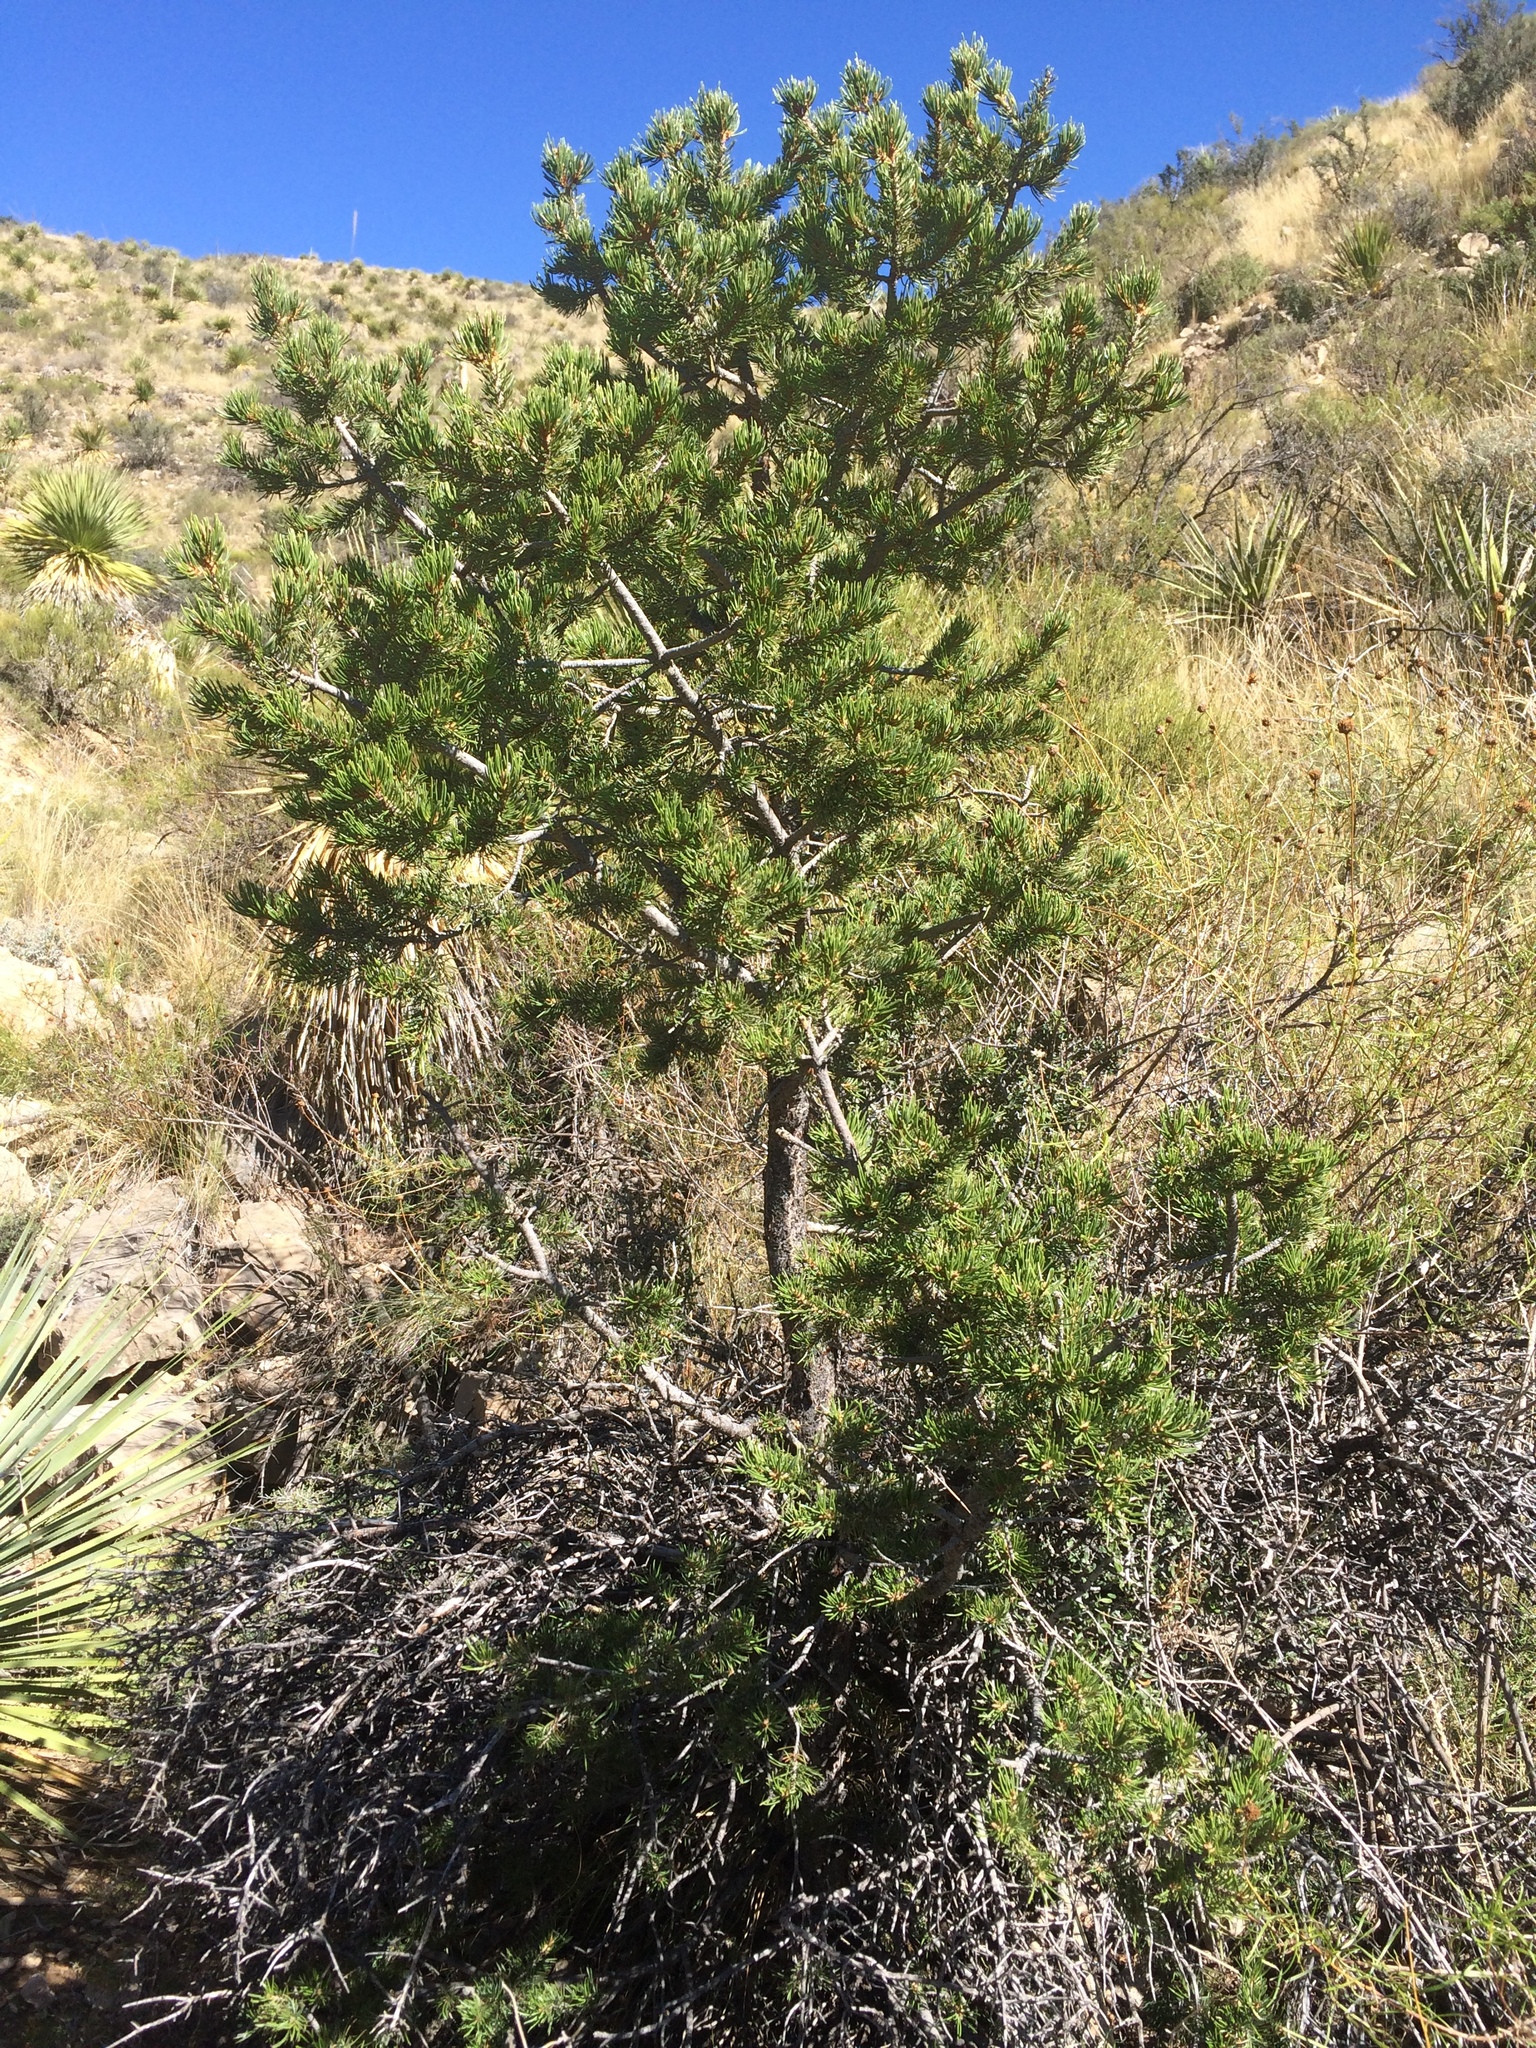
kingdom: Plantae
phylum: Tracheophyta
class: Pinopsida
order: Pinales
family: Pinaceae
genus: Pinus
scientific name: Pinus edulis
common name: Colorado pinyon
